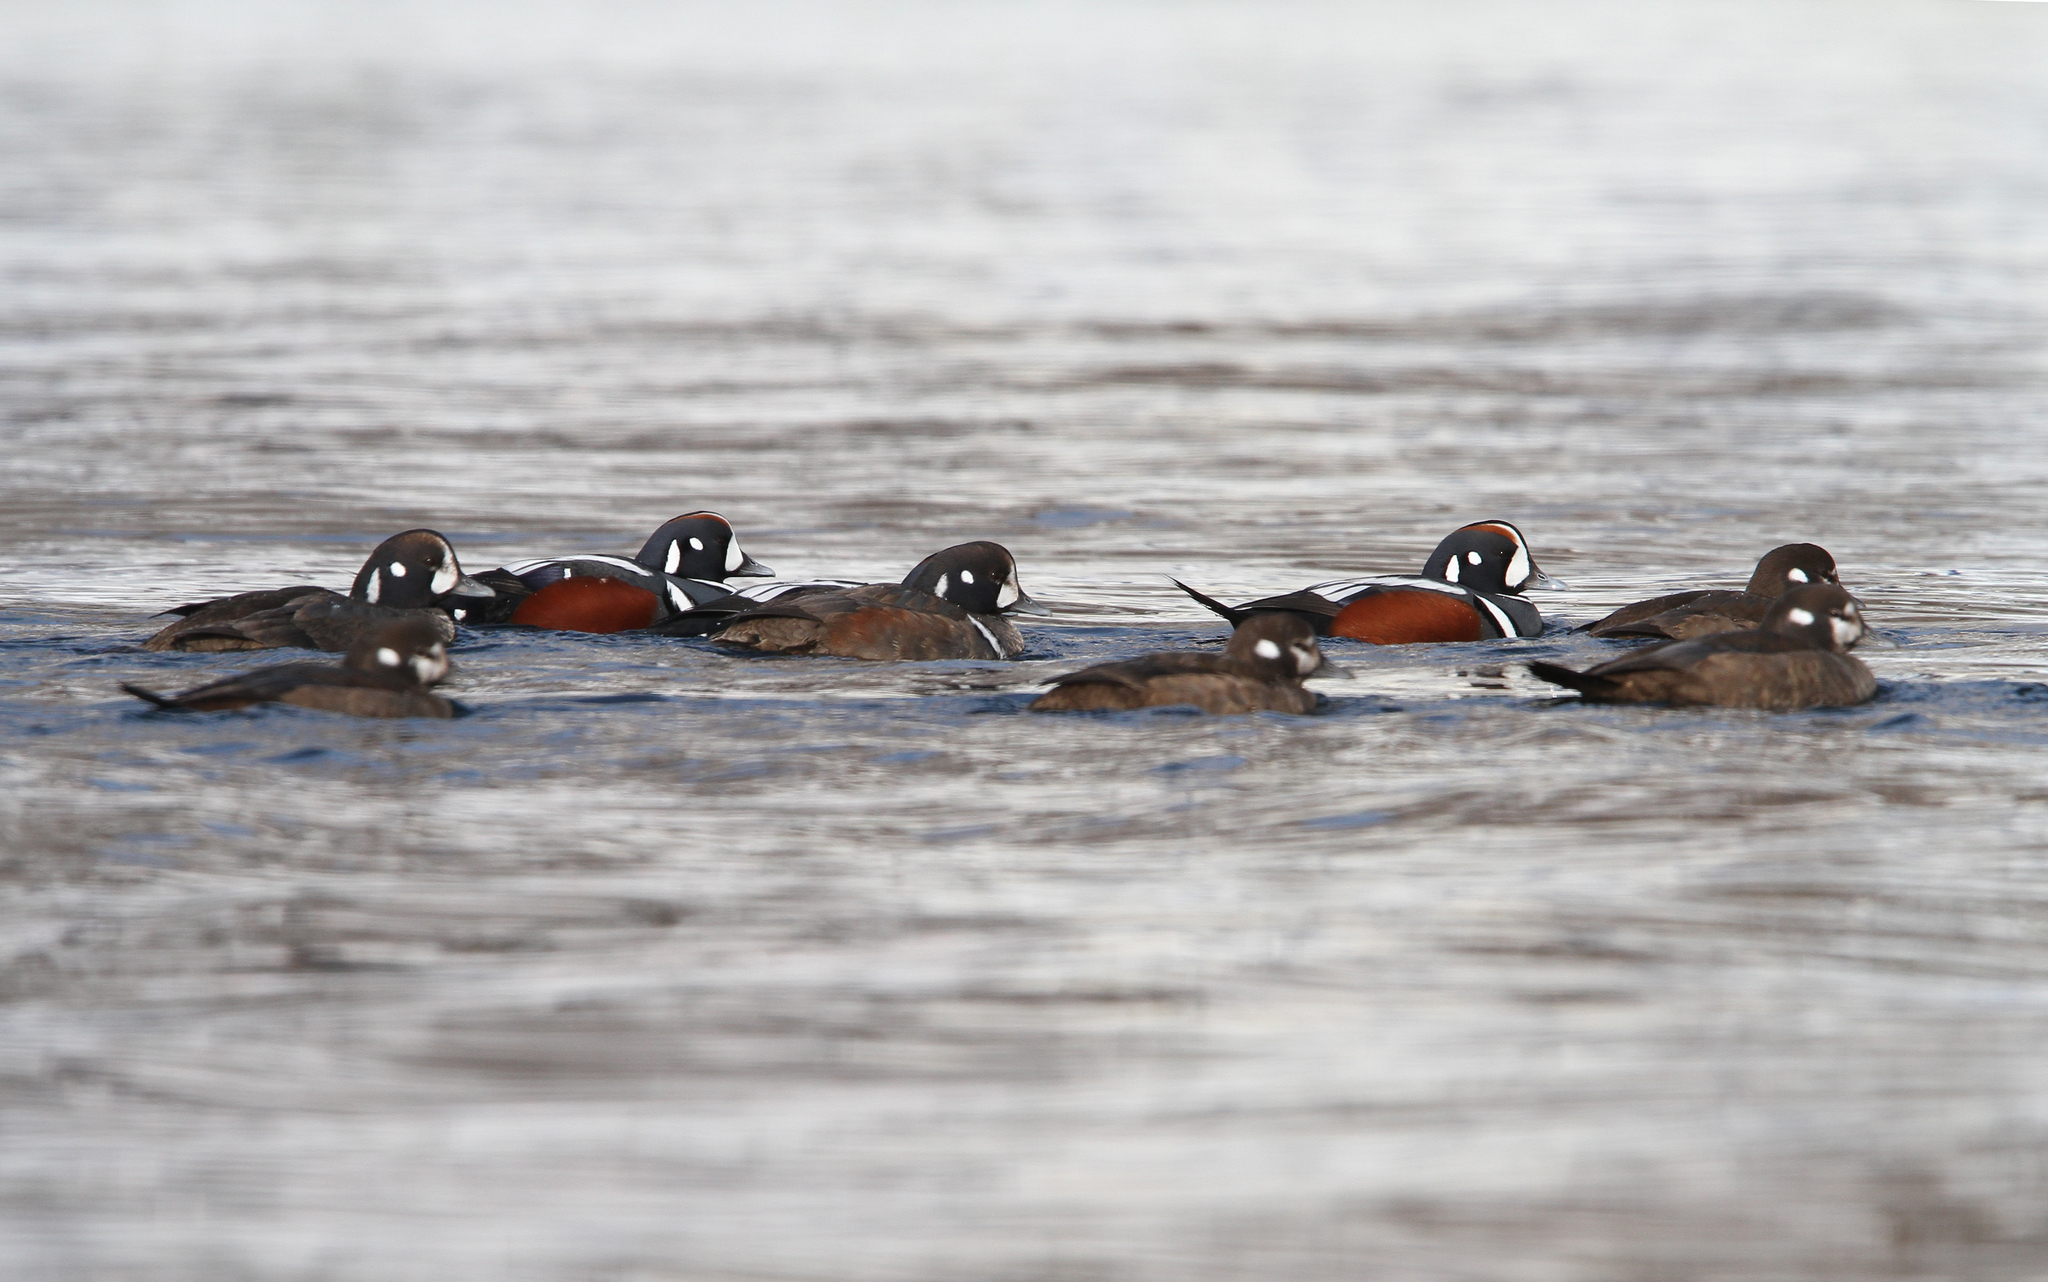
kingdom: Animalia
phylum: Chordata
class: Aves
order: Anseriformes
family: Anatidae
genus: Histrionicus
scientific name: Histrionicus histrionicus
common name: Harlequin duck
